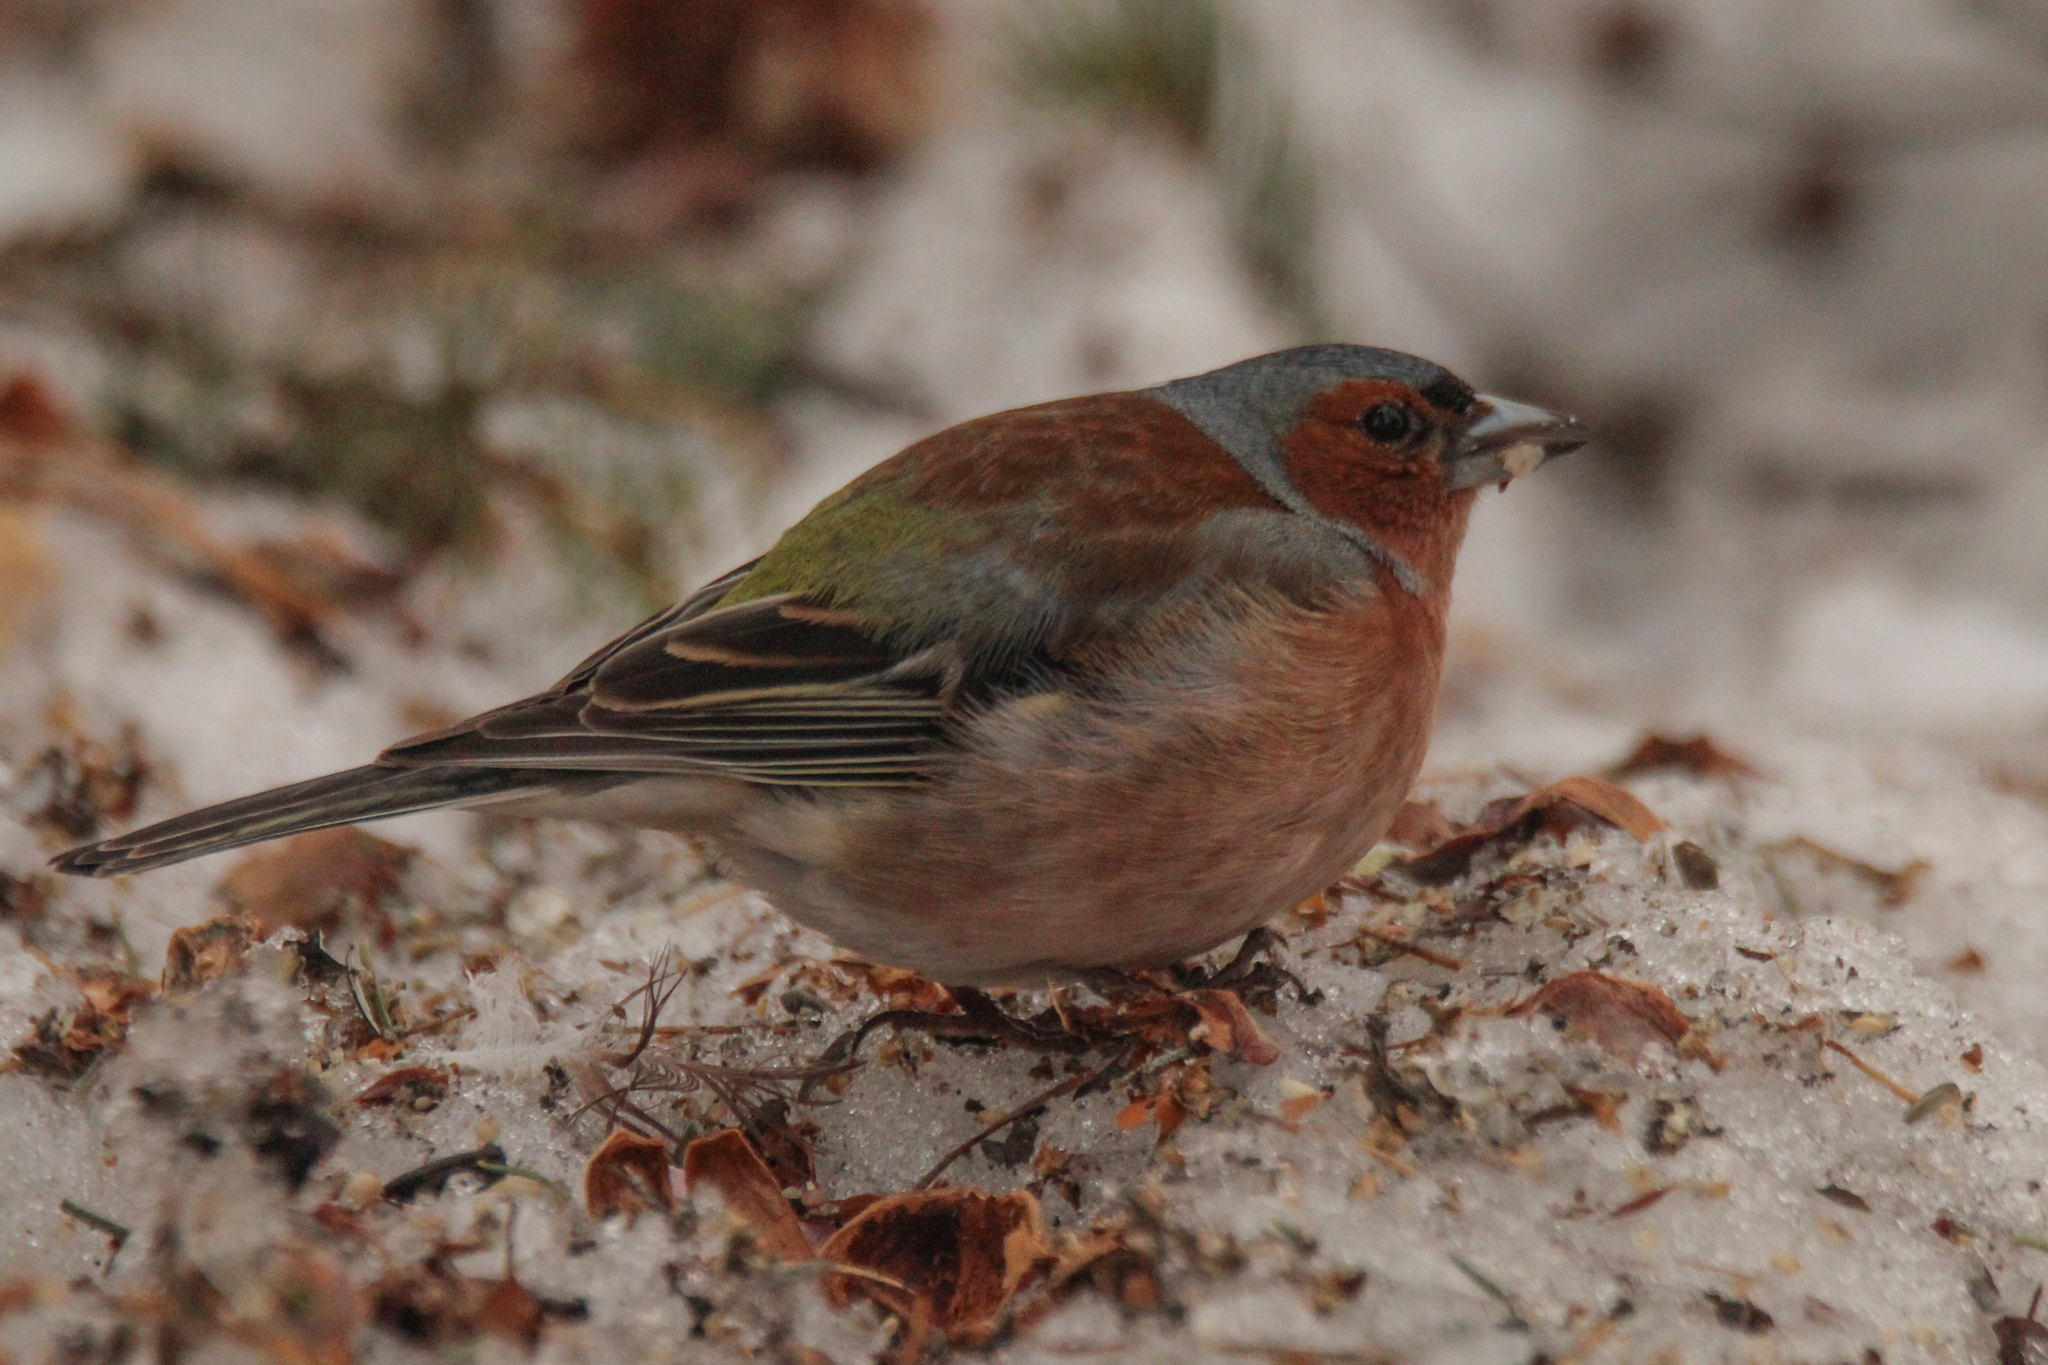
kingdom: Animalia
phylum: Chordata
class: Aves
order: Passeriformes
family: Fringillidae
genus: Fringilla
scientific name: Fringilla coelebs
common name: Common chaffinch
